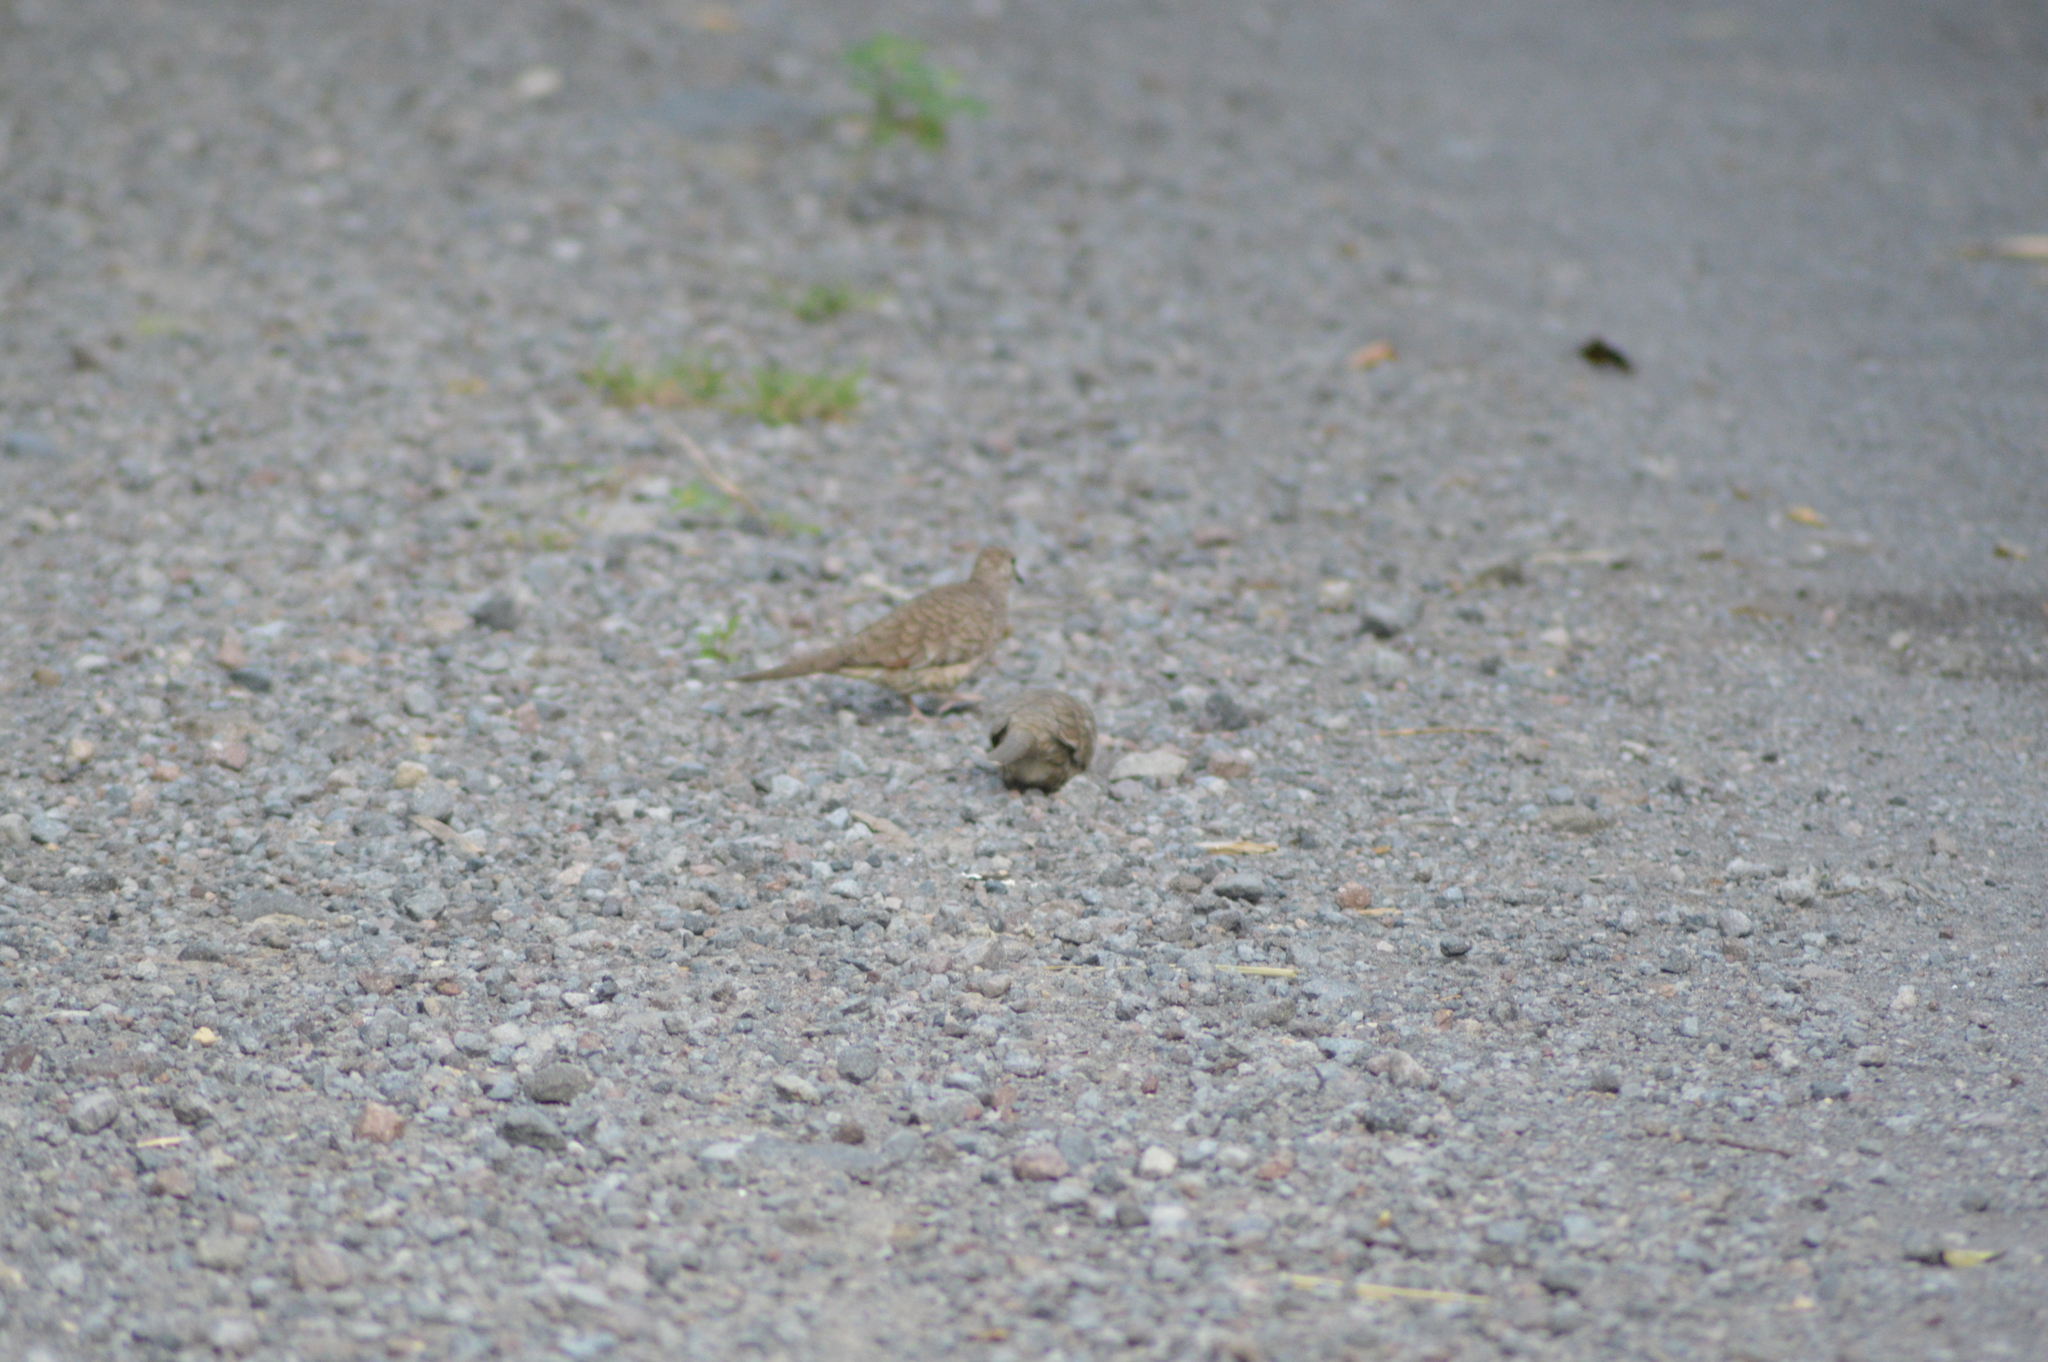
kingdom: Animalia
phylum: Chordata
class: Aves
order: Columbiformes
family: Columbidae
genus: Columbina
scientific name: Columbina inca
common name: Inca dove
